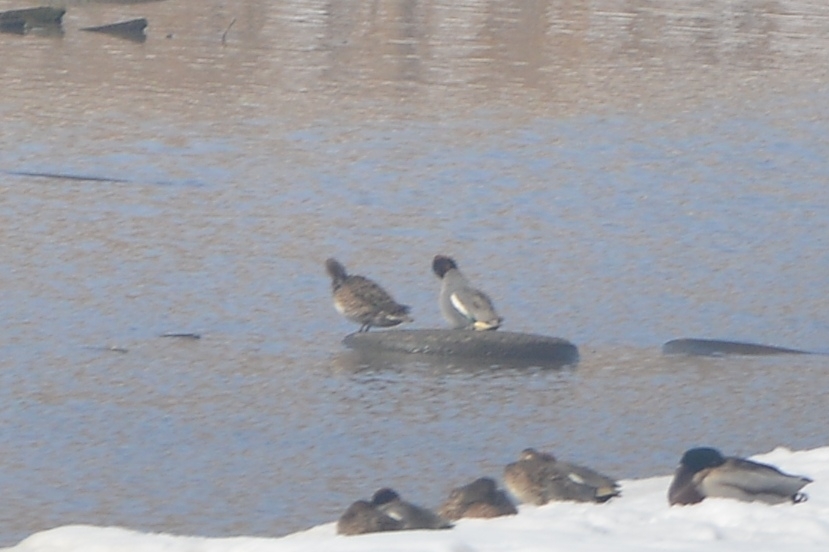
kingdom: Animalia
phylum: Chordata
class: Aves
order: Anseriformes
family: Anatidae
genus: Anas
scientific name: Anas crecca
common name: Eurasian teal
